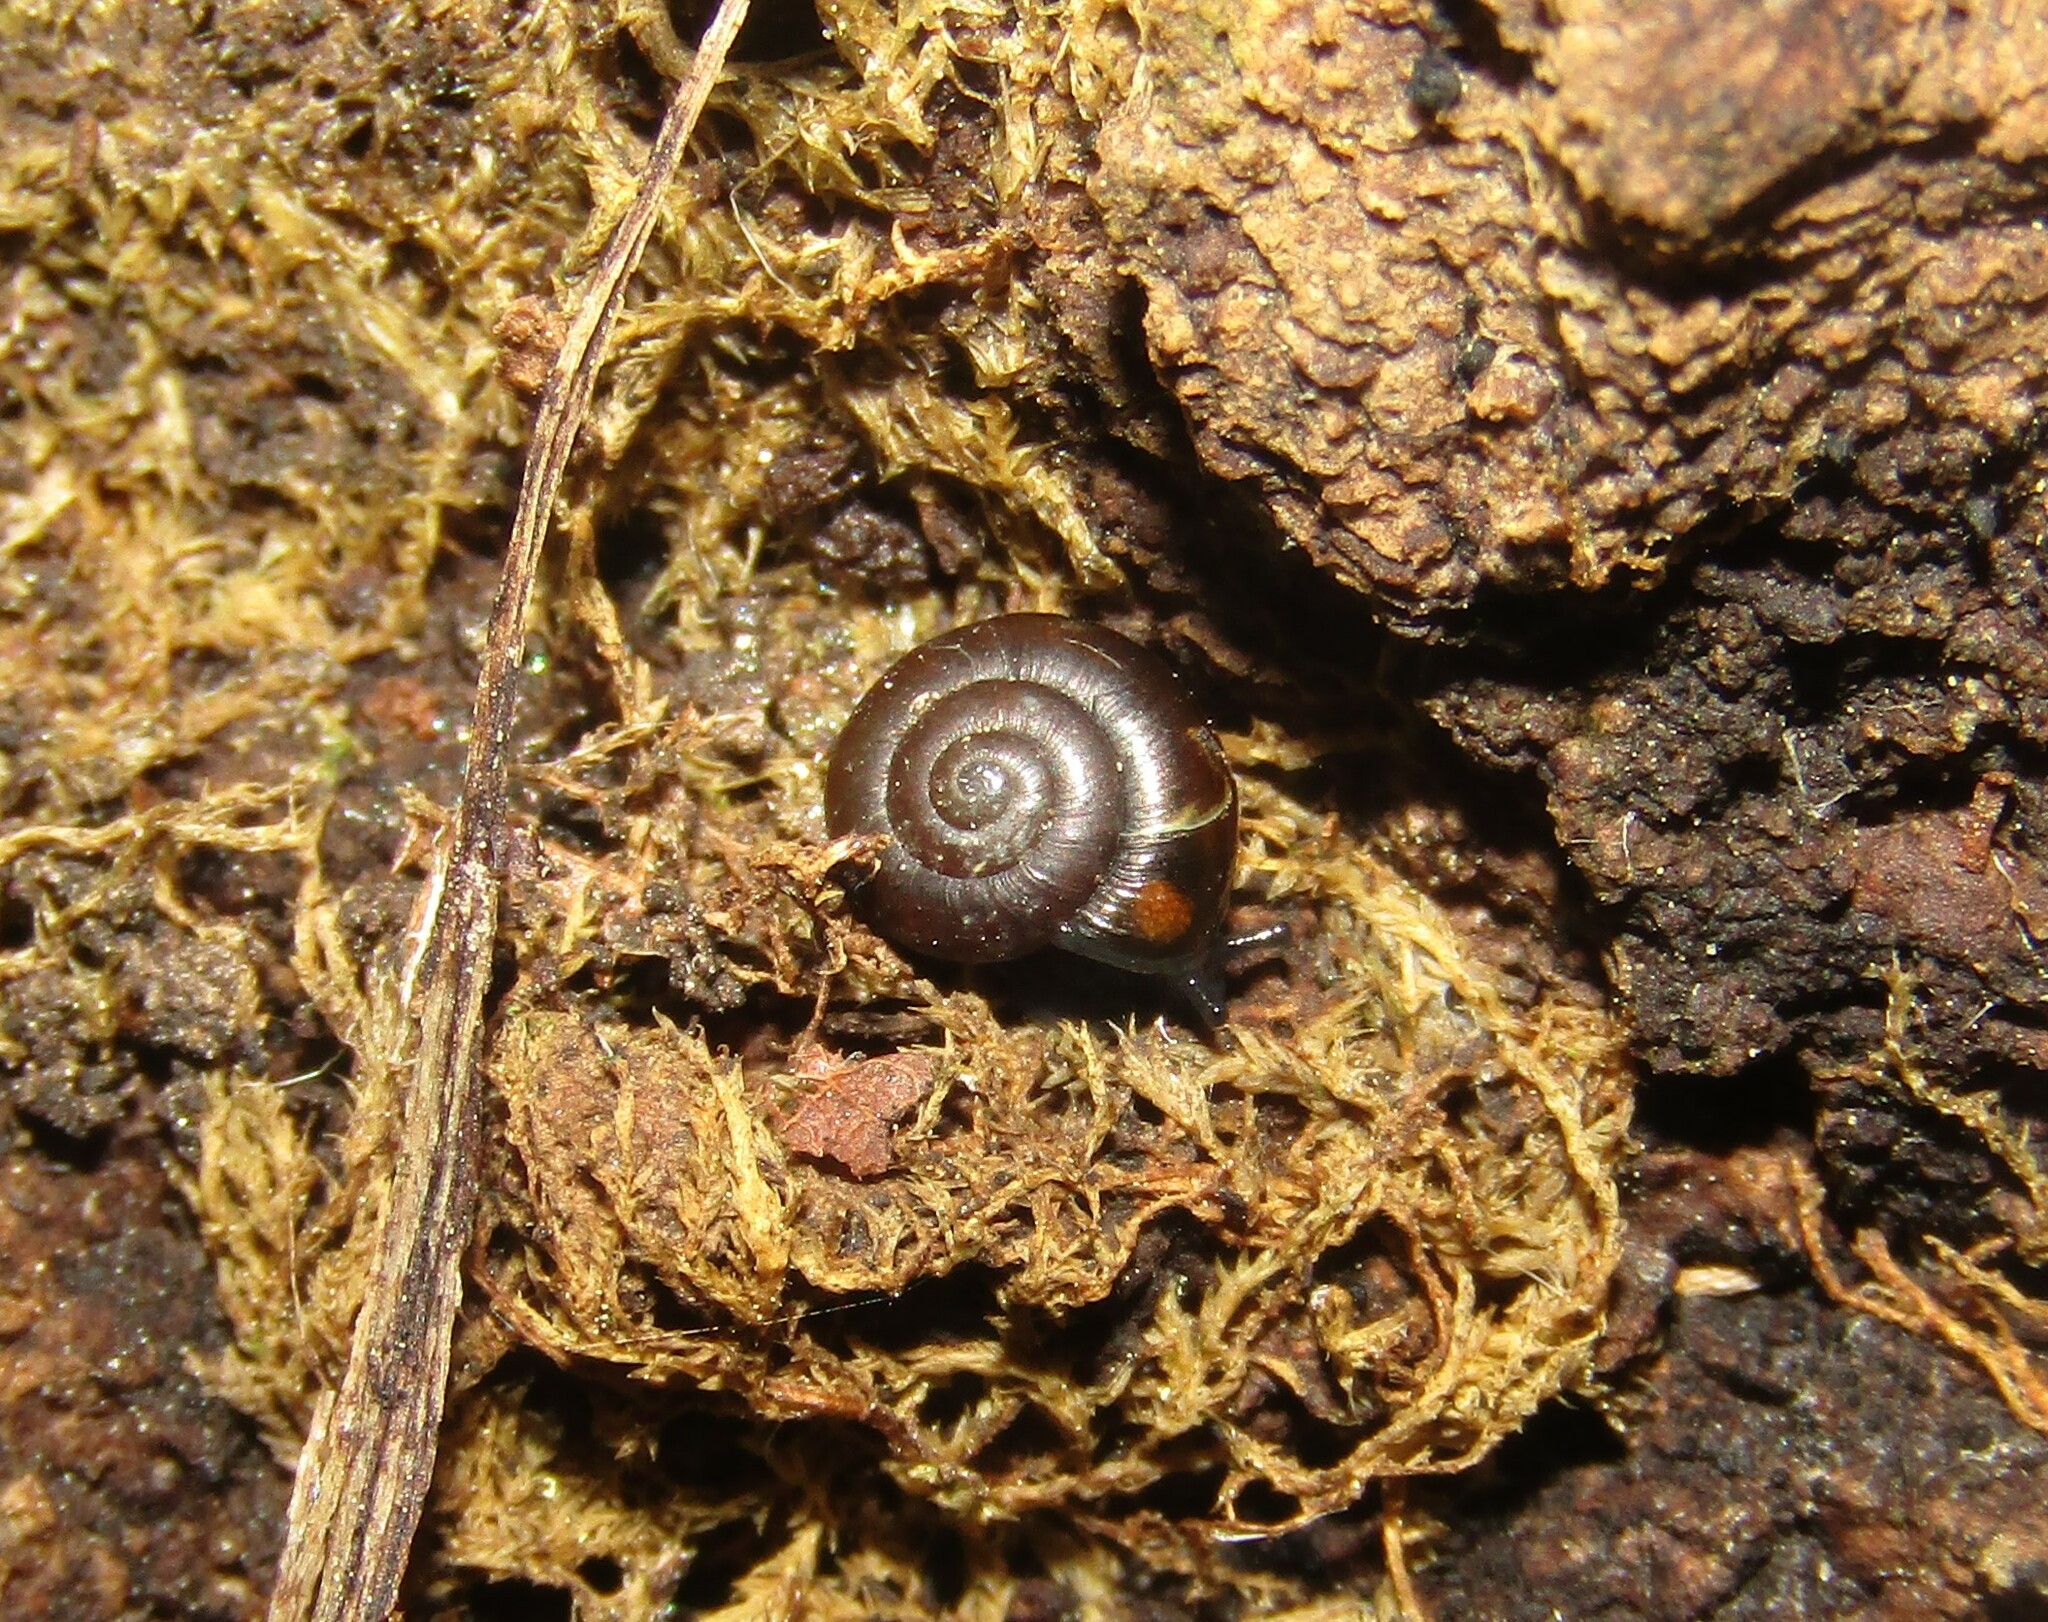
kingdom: Animalia
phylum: Mollusca
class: Gastropoda
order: Stylommatophora
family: Gastrodontidae
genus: Zonitoides
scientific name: Zonitoides nitidus
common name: Shiny glass snail
